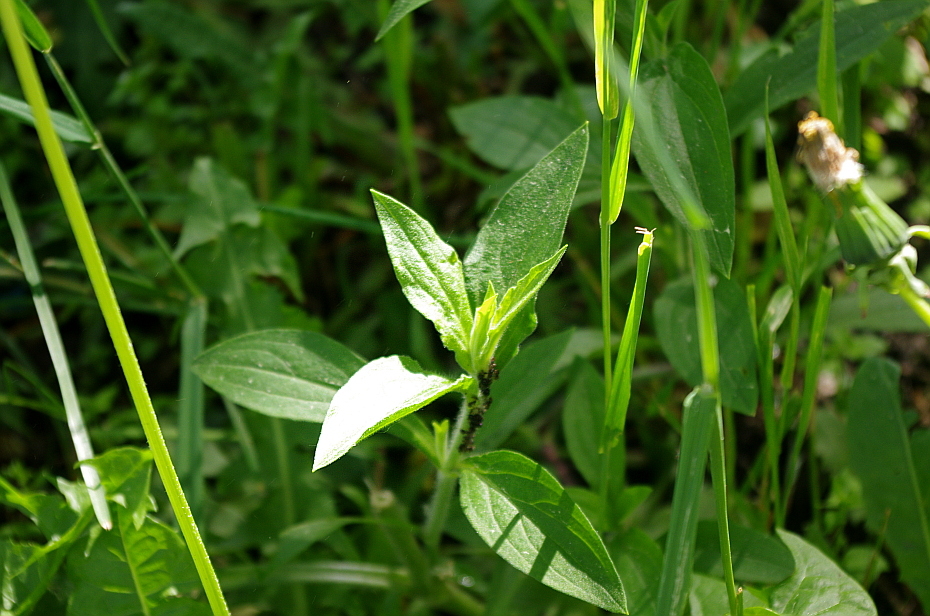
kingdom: Plantae
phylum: Tracheophyta
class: Magnoliopsida
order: Caryophyllales
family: Caryophyllaceae
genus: Silene
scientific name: Silene latifolia
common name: White campion
